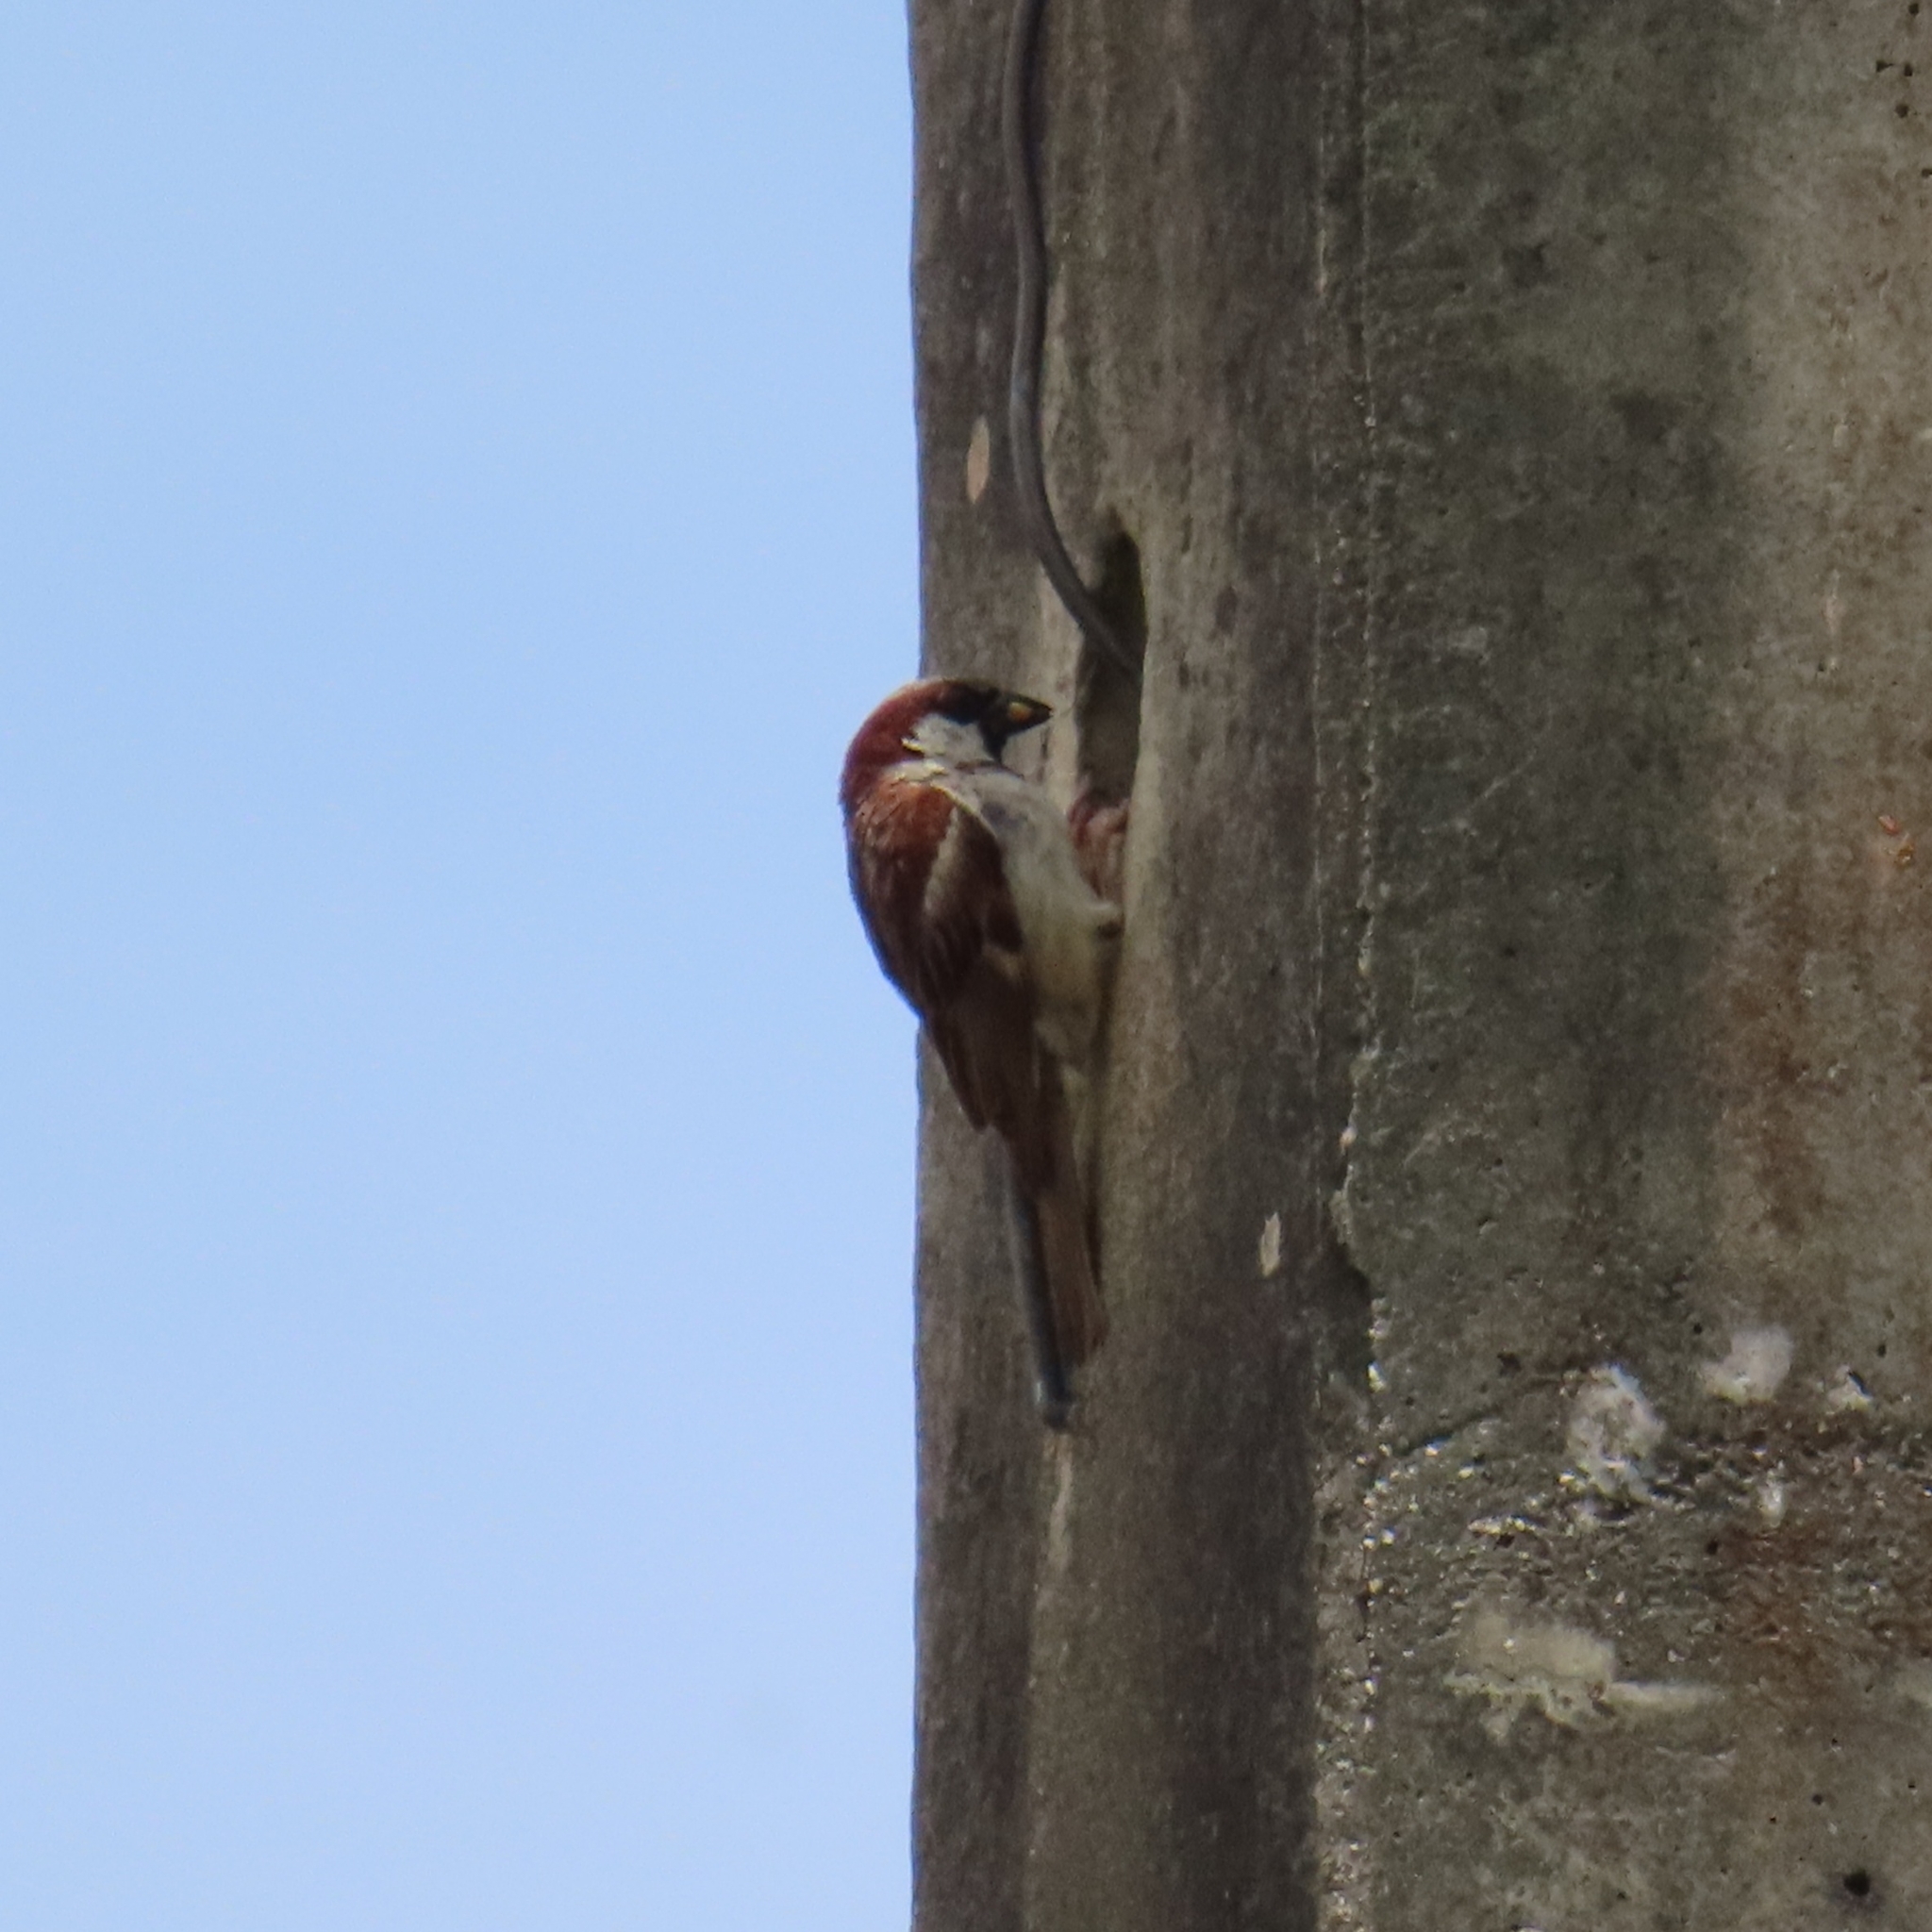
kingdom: Animalia
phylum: Chordata
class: Aves
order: Passeriformes
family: Passeridae
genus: Passer
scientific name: Passer domesticus
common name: House sparrow
